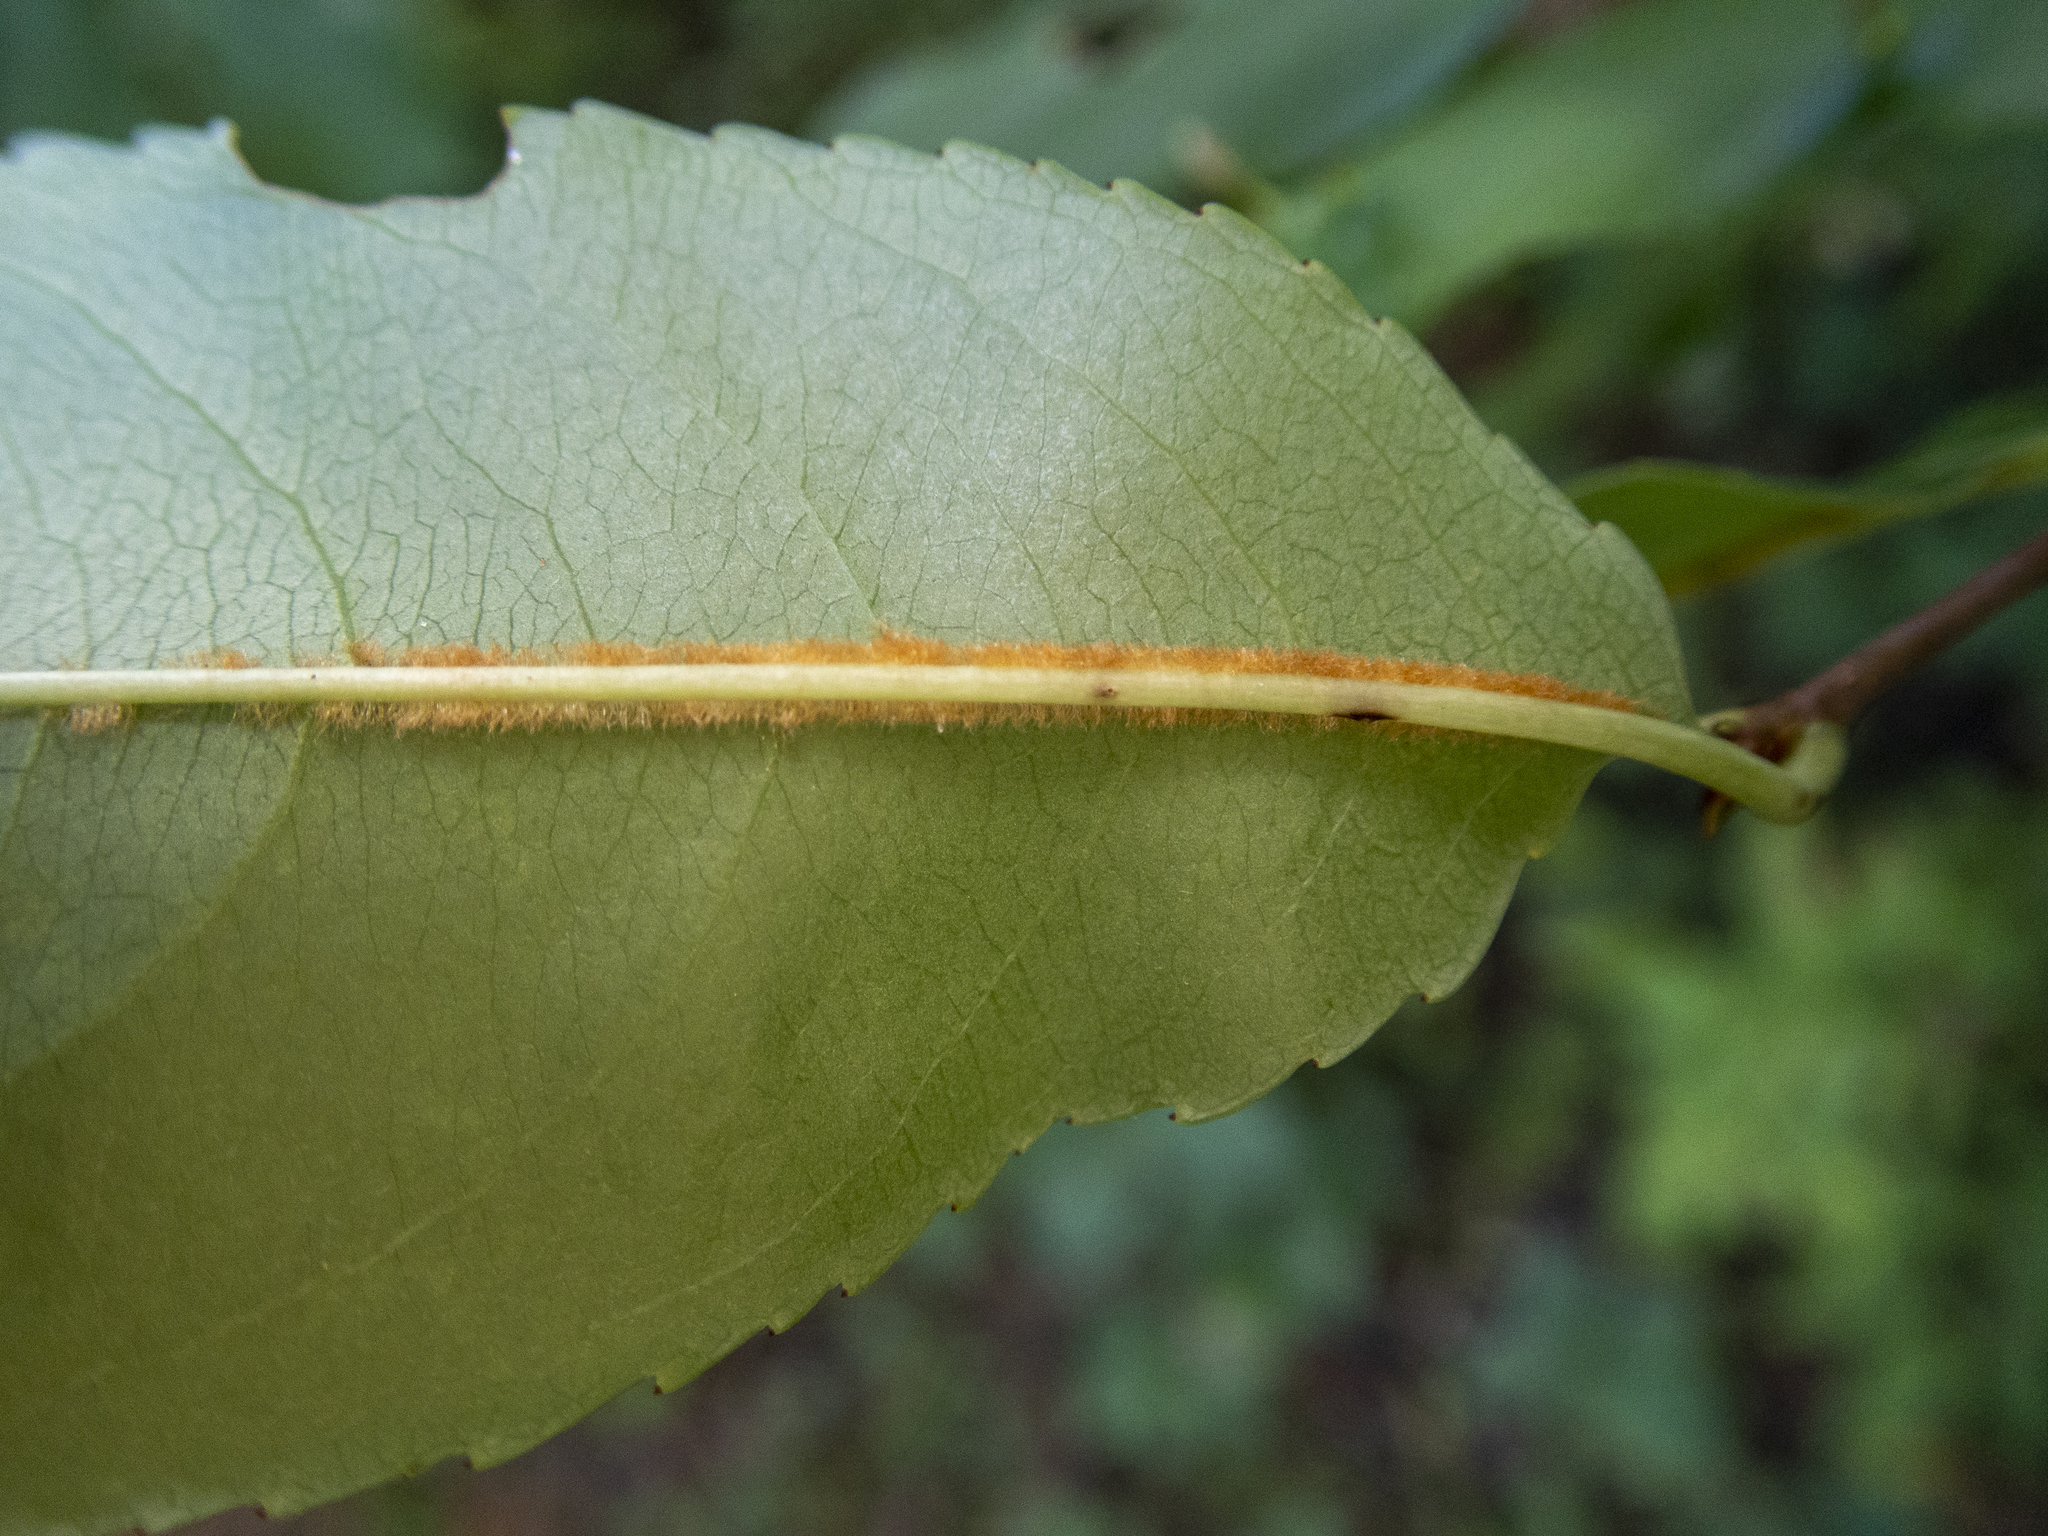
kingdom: Plantae
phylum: Tracheophyta
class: Magnoliopsida
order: Rosales
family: Rosaceae
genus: Prunus
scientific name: Prunus serotina
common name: Black cherry
